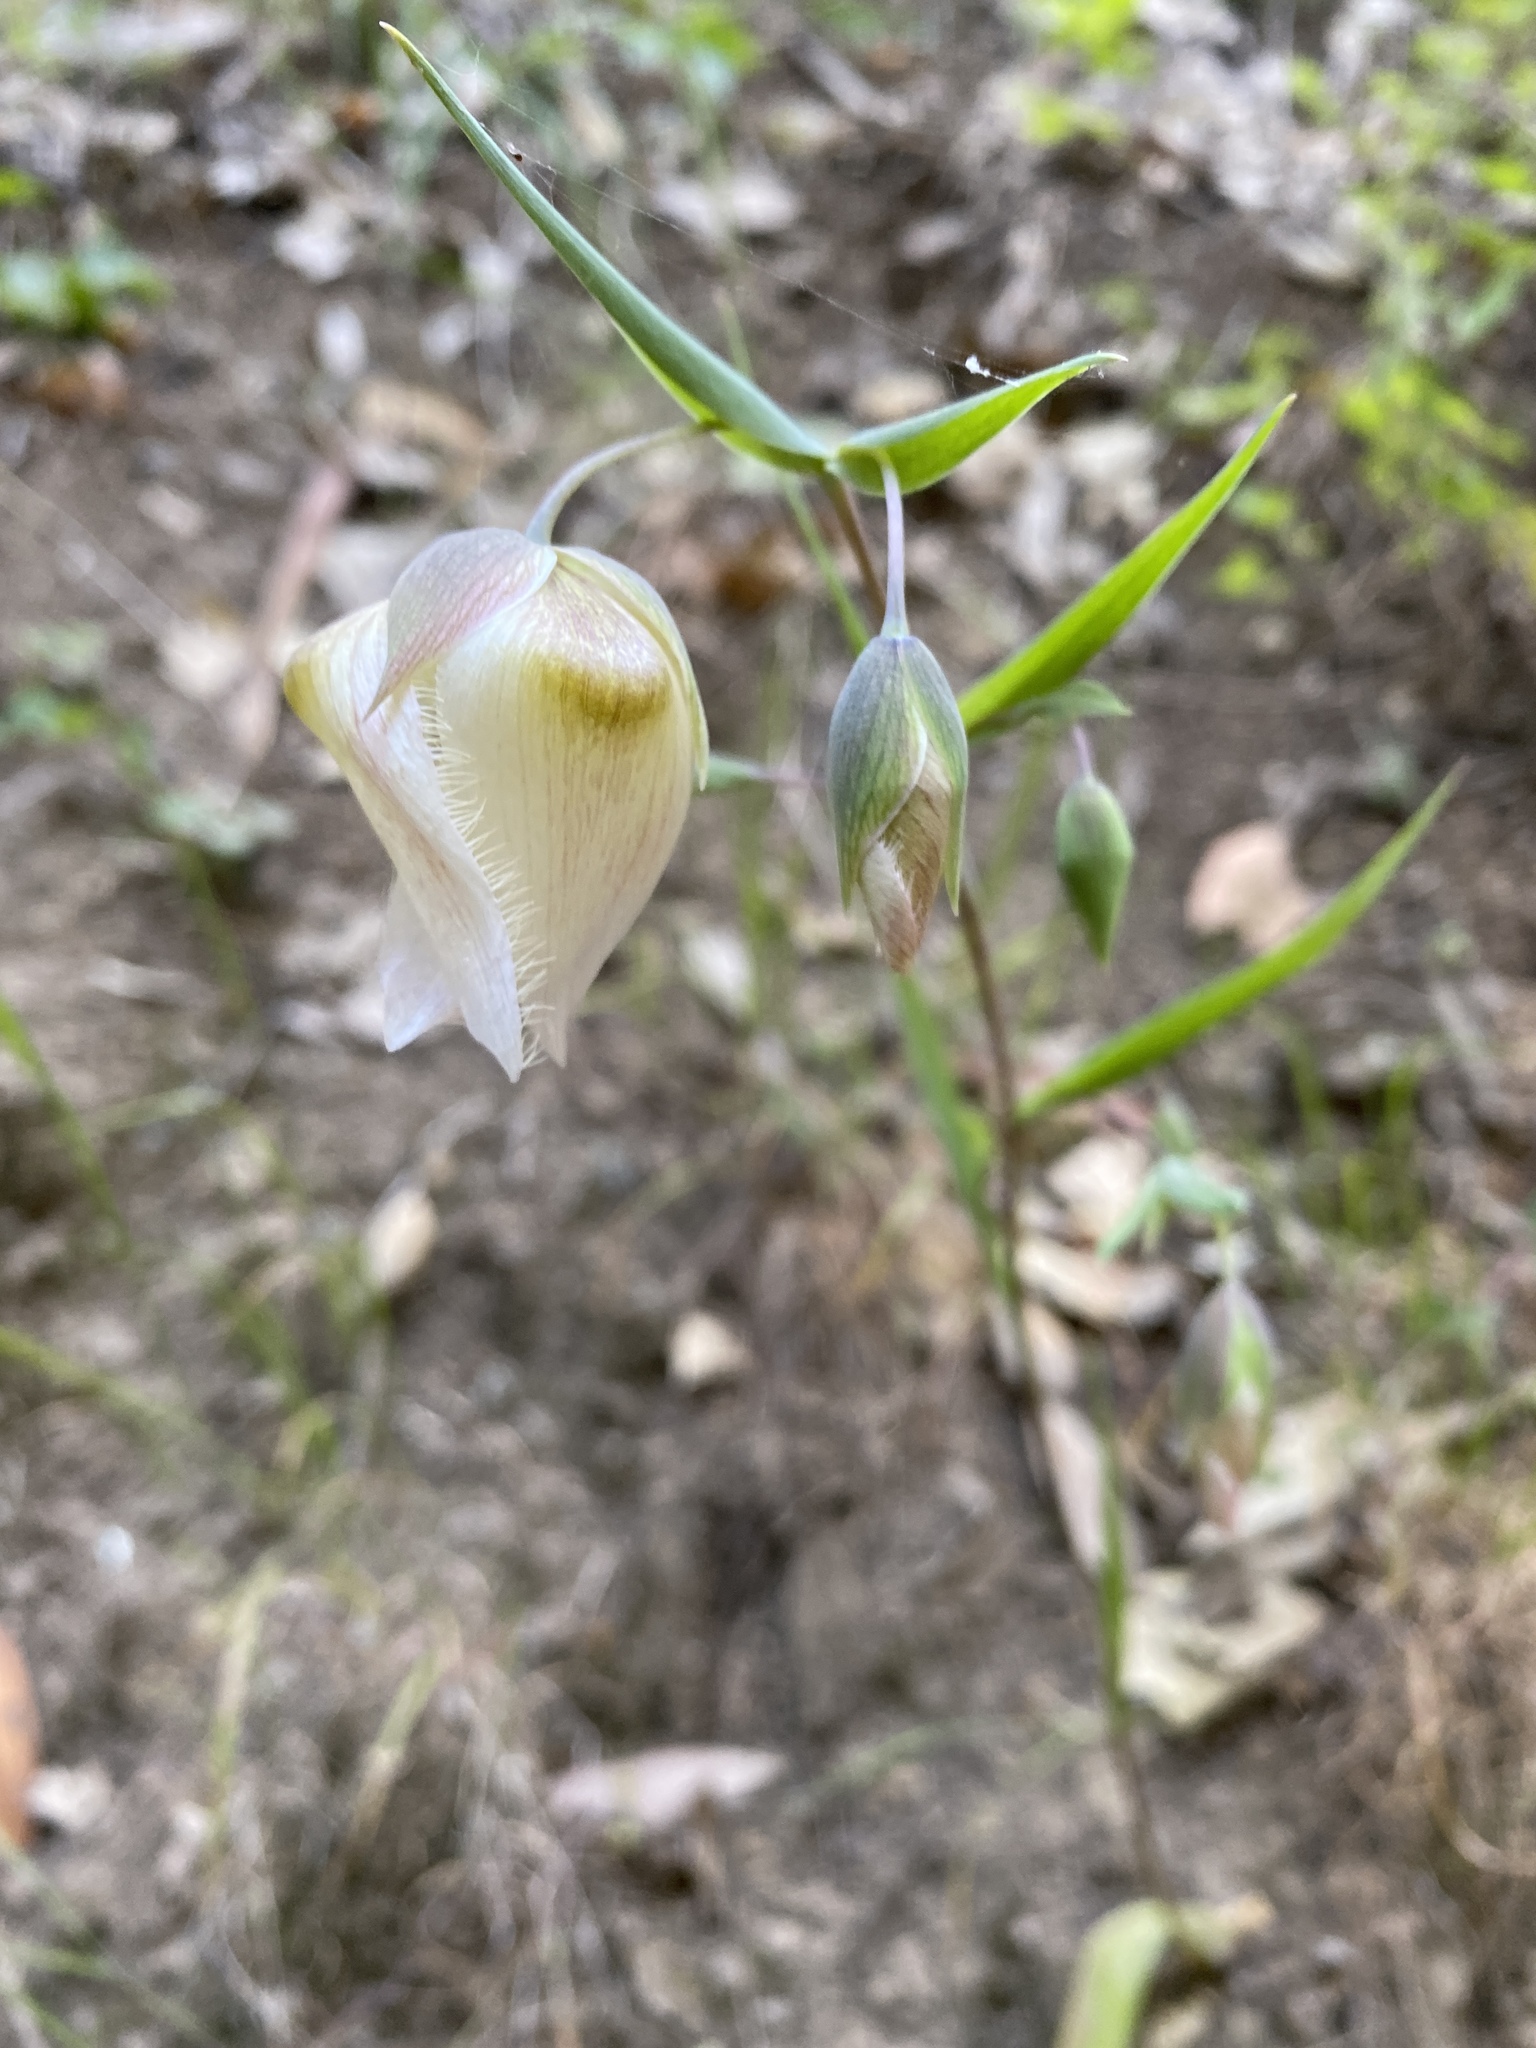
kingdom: Plantae
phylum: Tracheophyta
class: Liliopsida
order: Liliales
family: Liliaceae
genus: Calochortus
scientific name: Calochortus albus
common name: Fairy-lantern
